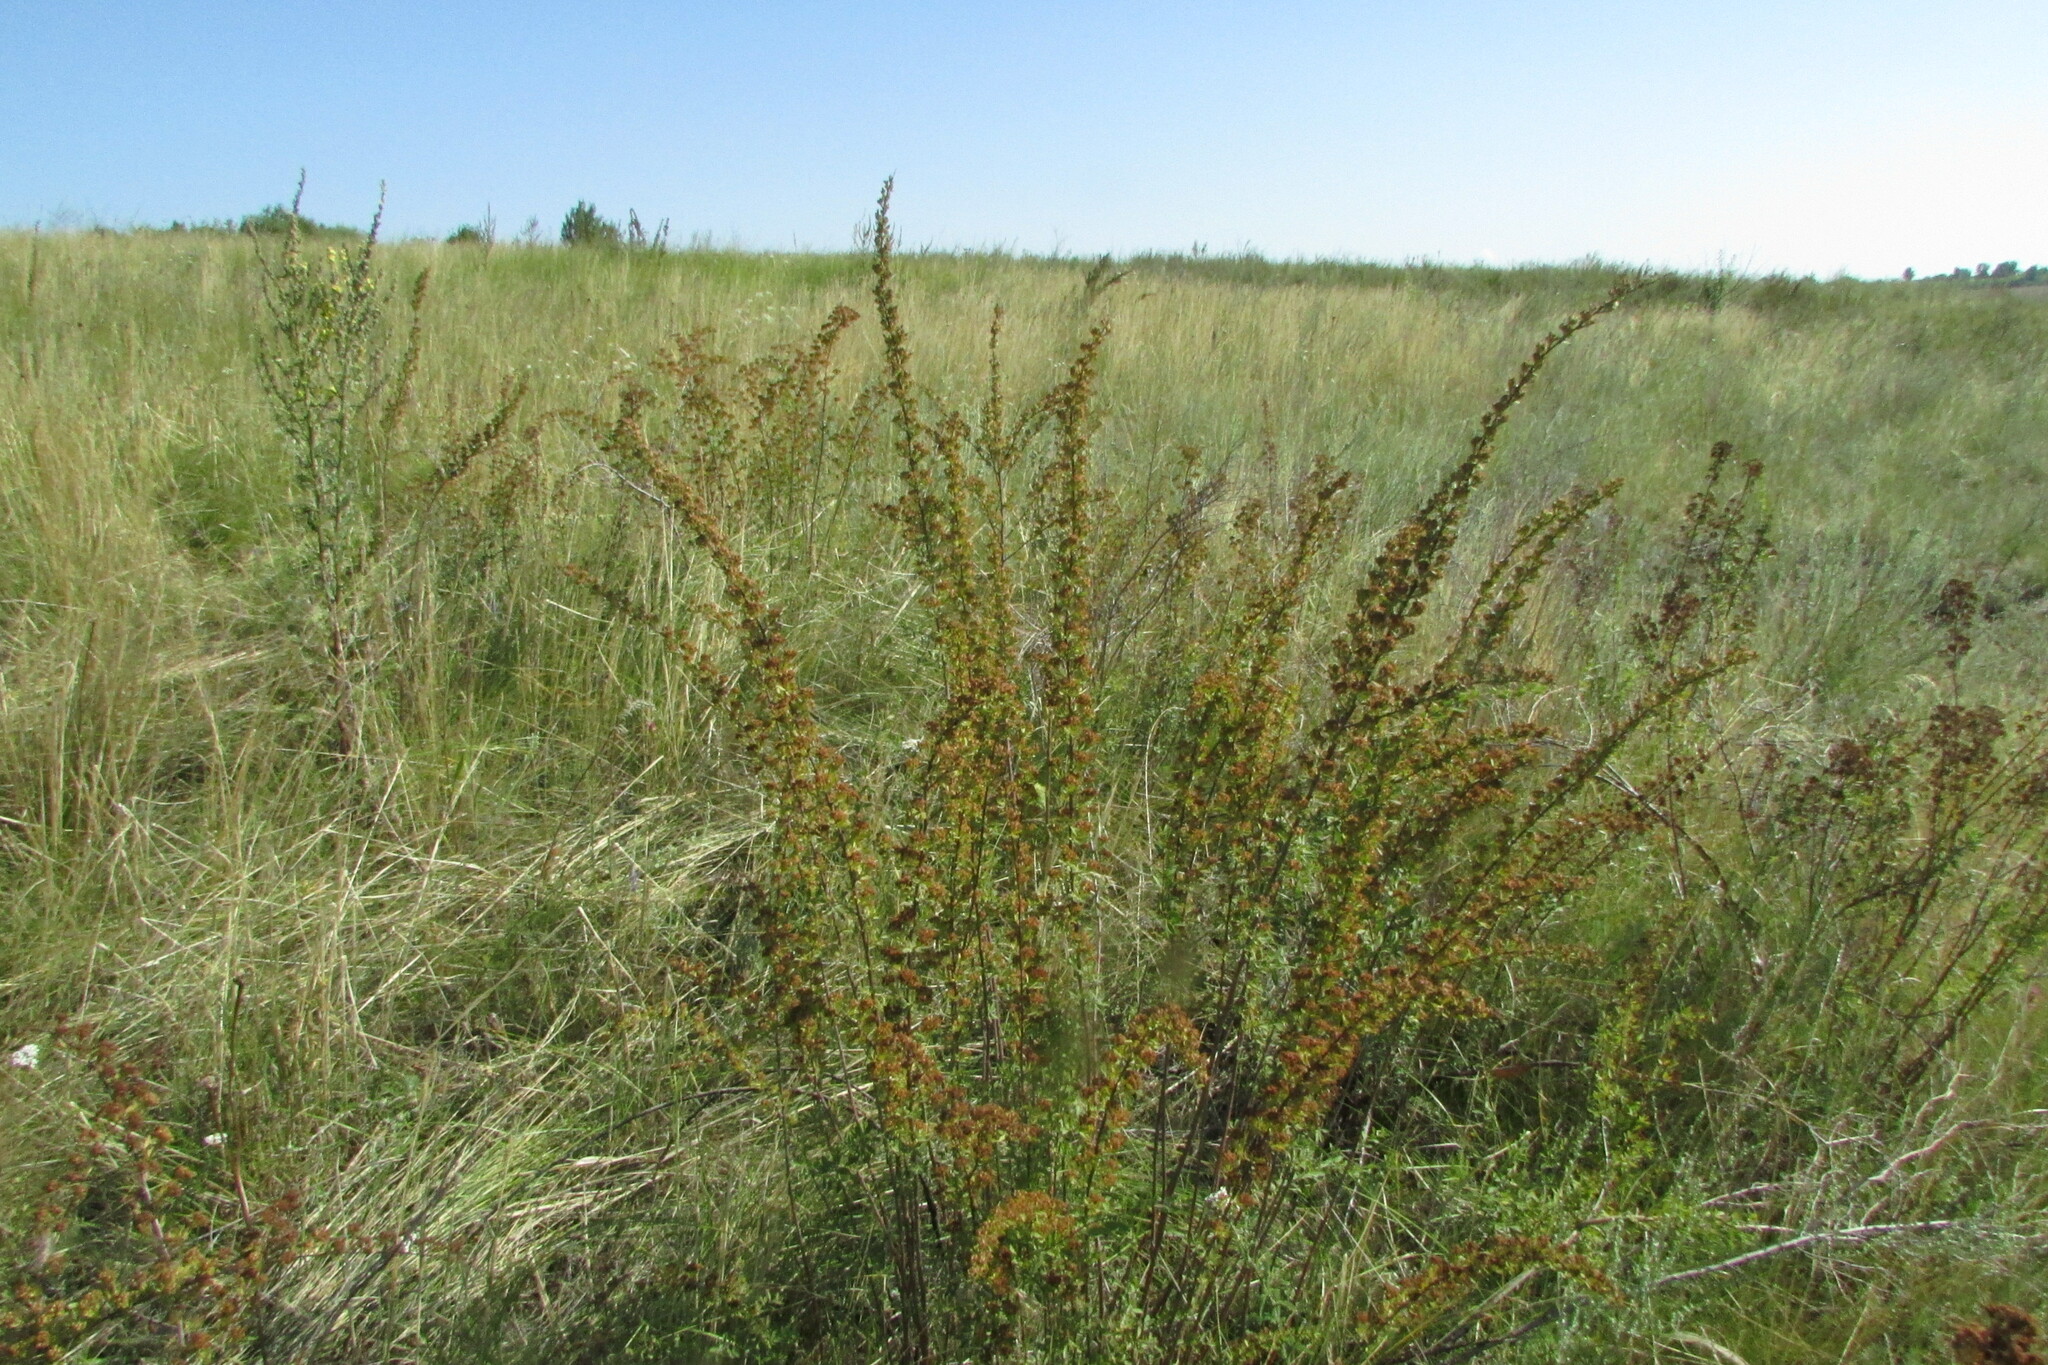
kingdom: Plantae
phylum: Tracheophyta
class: Magnoliopsida
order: Rosales
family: Rosaceae
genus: Spiraea
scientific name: Spiraea crenata
